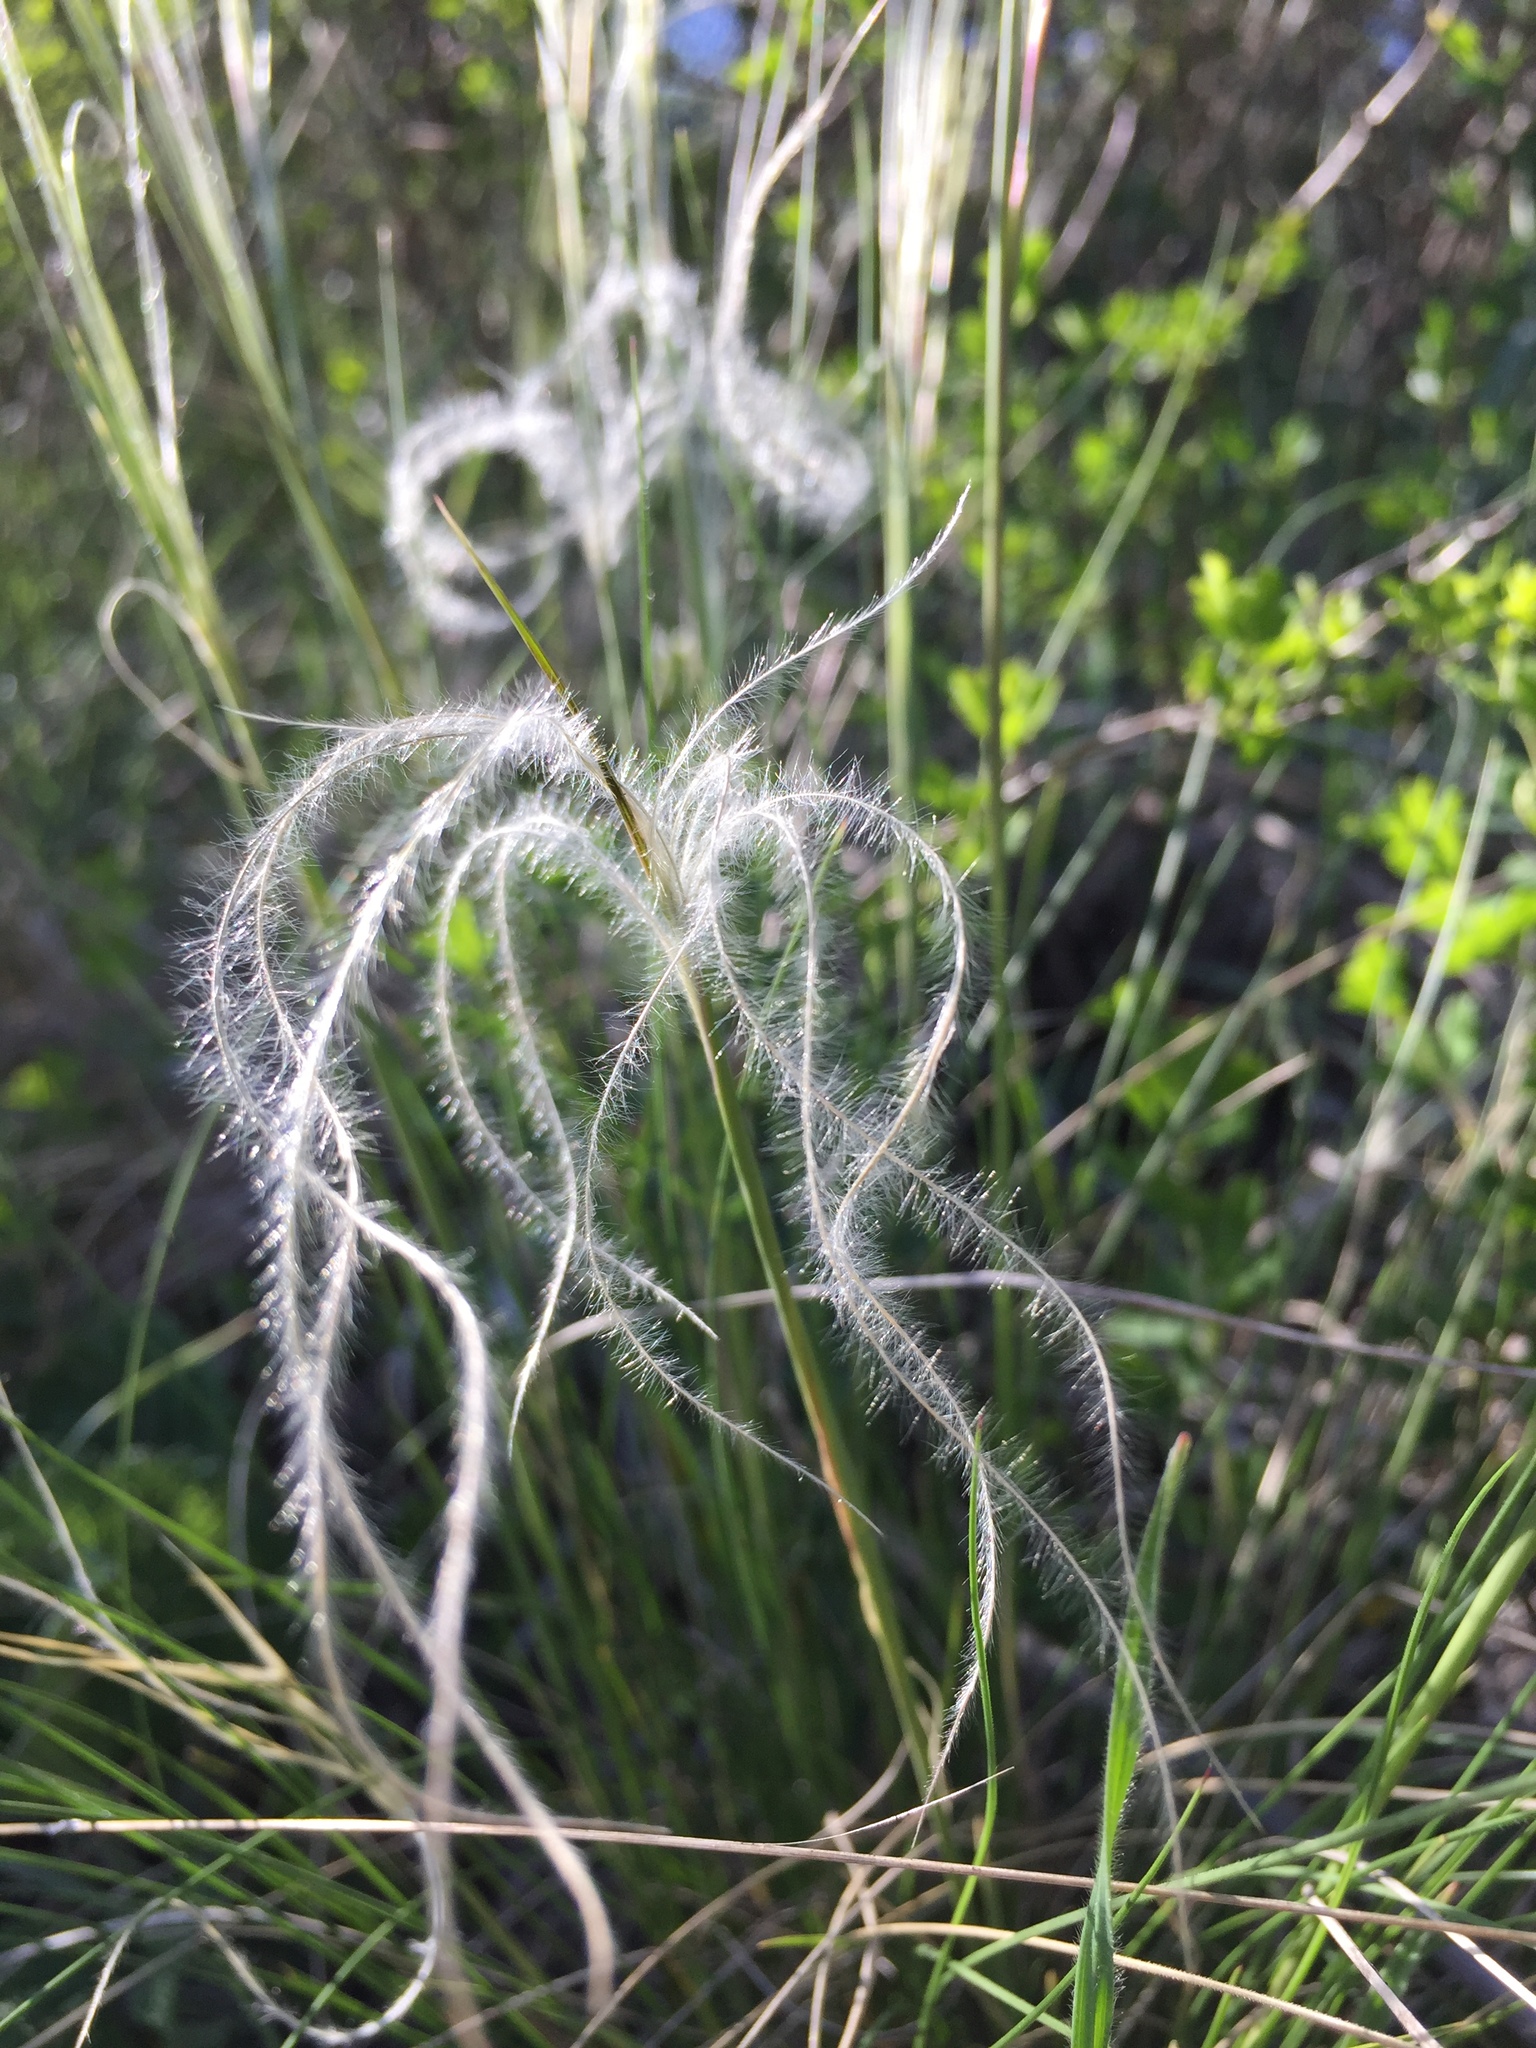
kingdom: Plantae
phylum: Tracheophyta
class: Liliopsida
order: Poales
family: Poaceae
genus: Stipa
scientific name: Stipa pennata
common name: European feather grass
